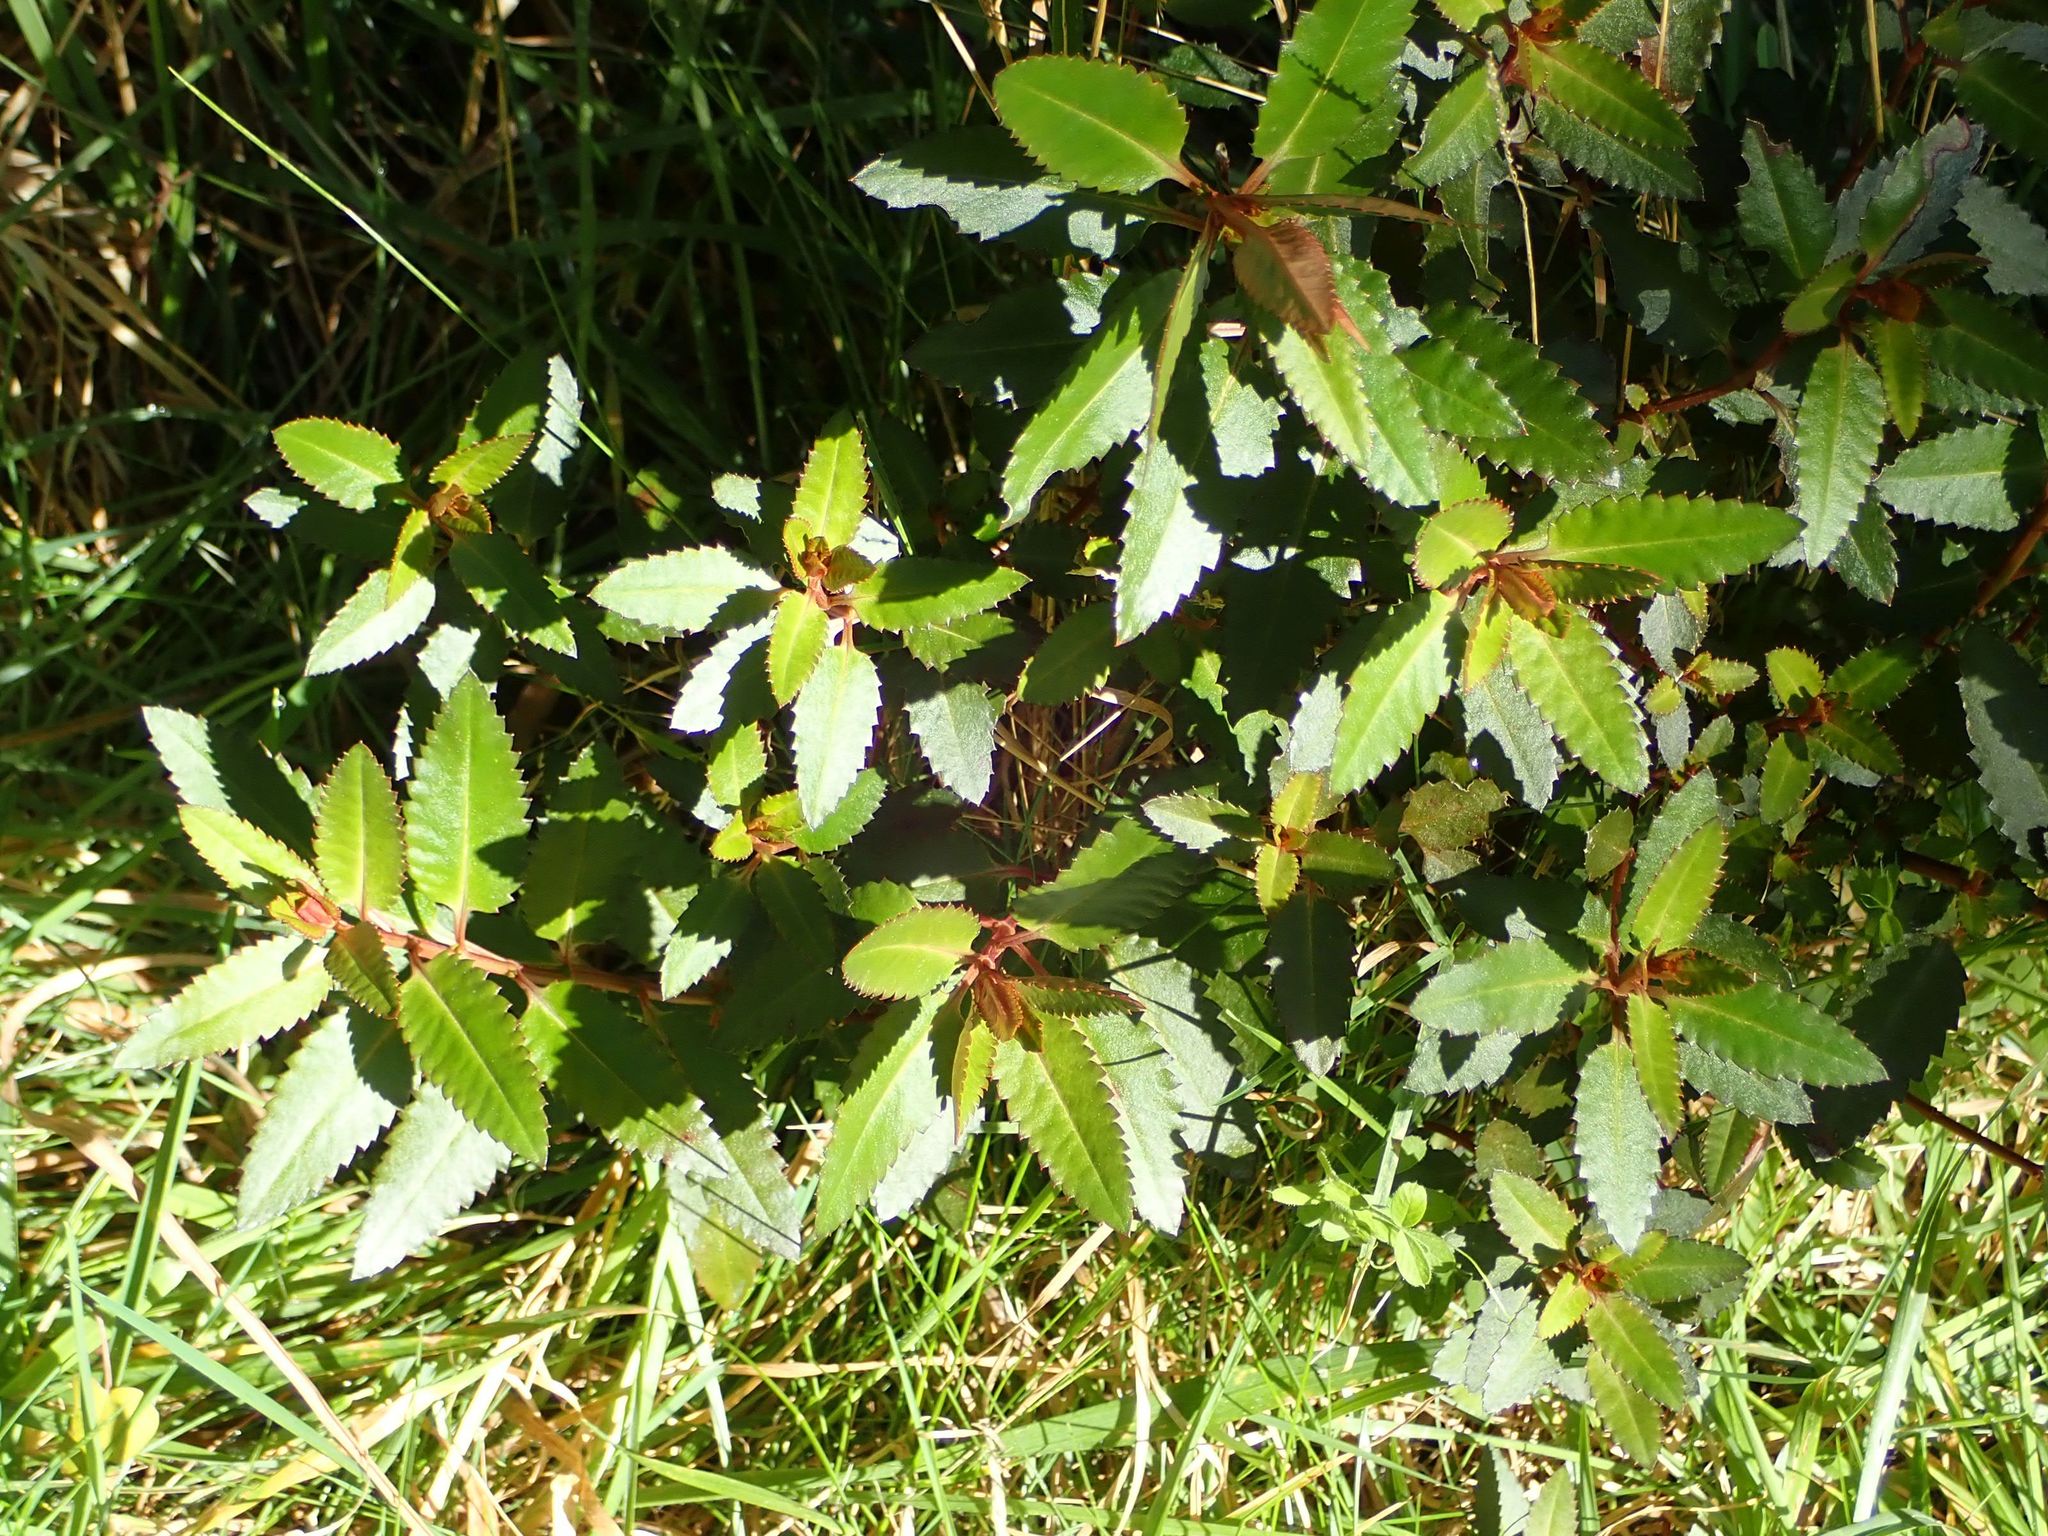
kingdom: Plantae
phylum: Tracheophyta
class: Magnoliopsida
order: Saxifragales
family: Haloragaceae
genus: Haloragis
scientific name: Haloragis erecta
